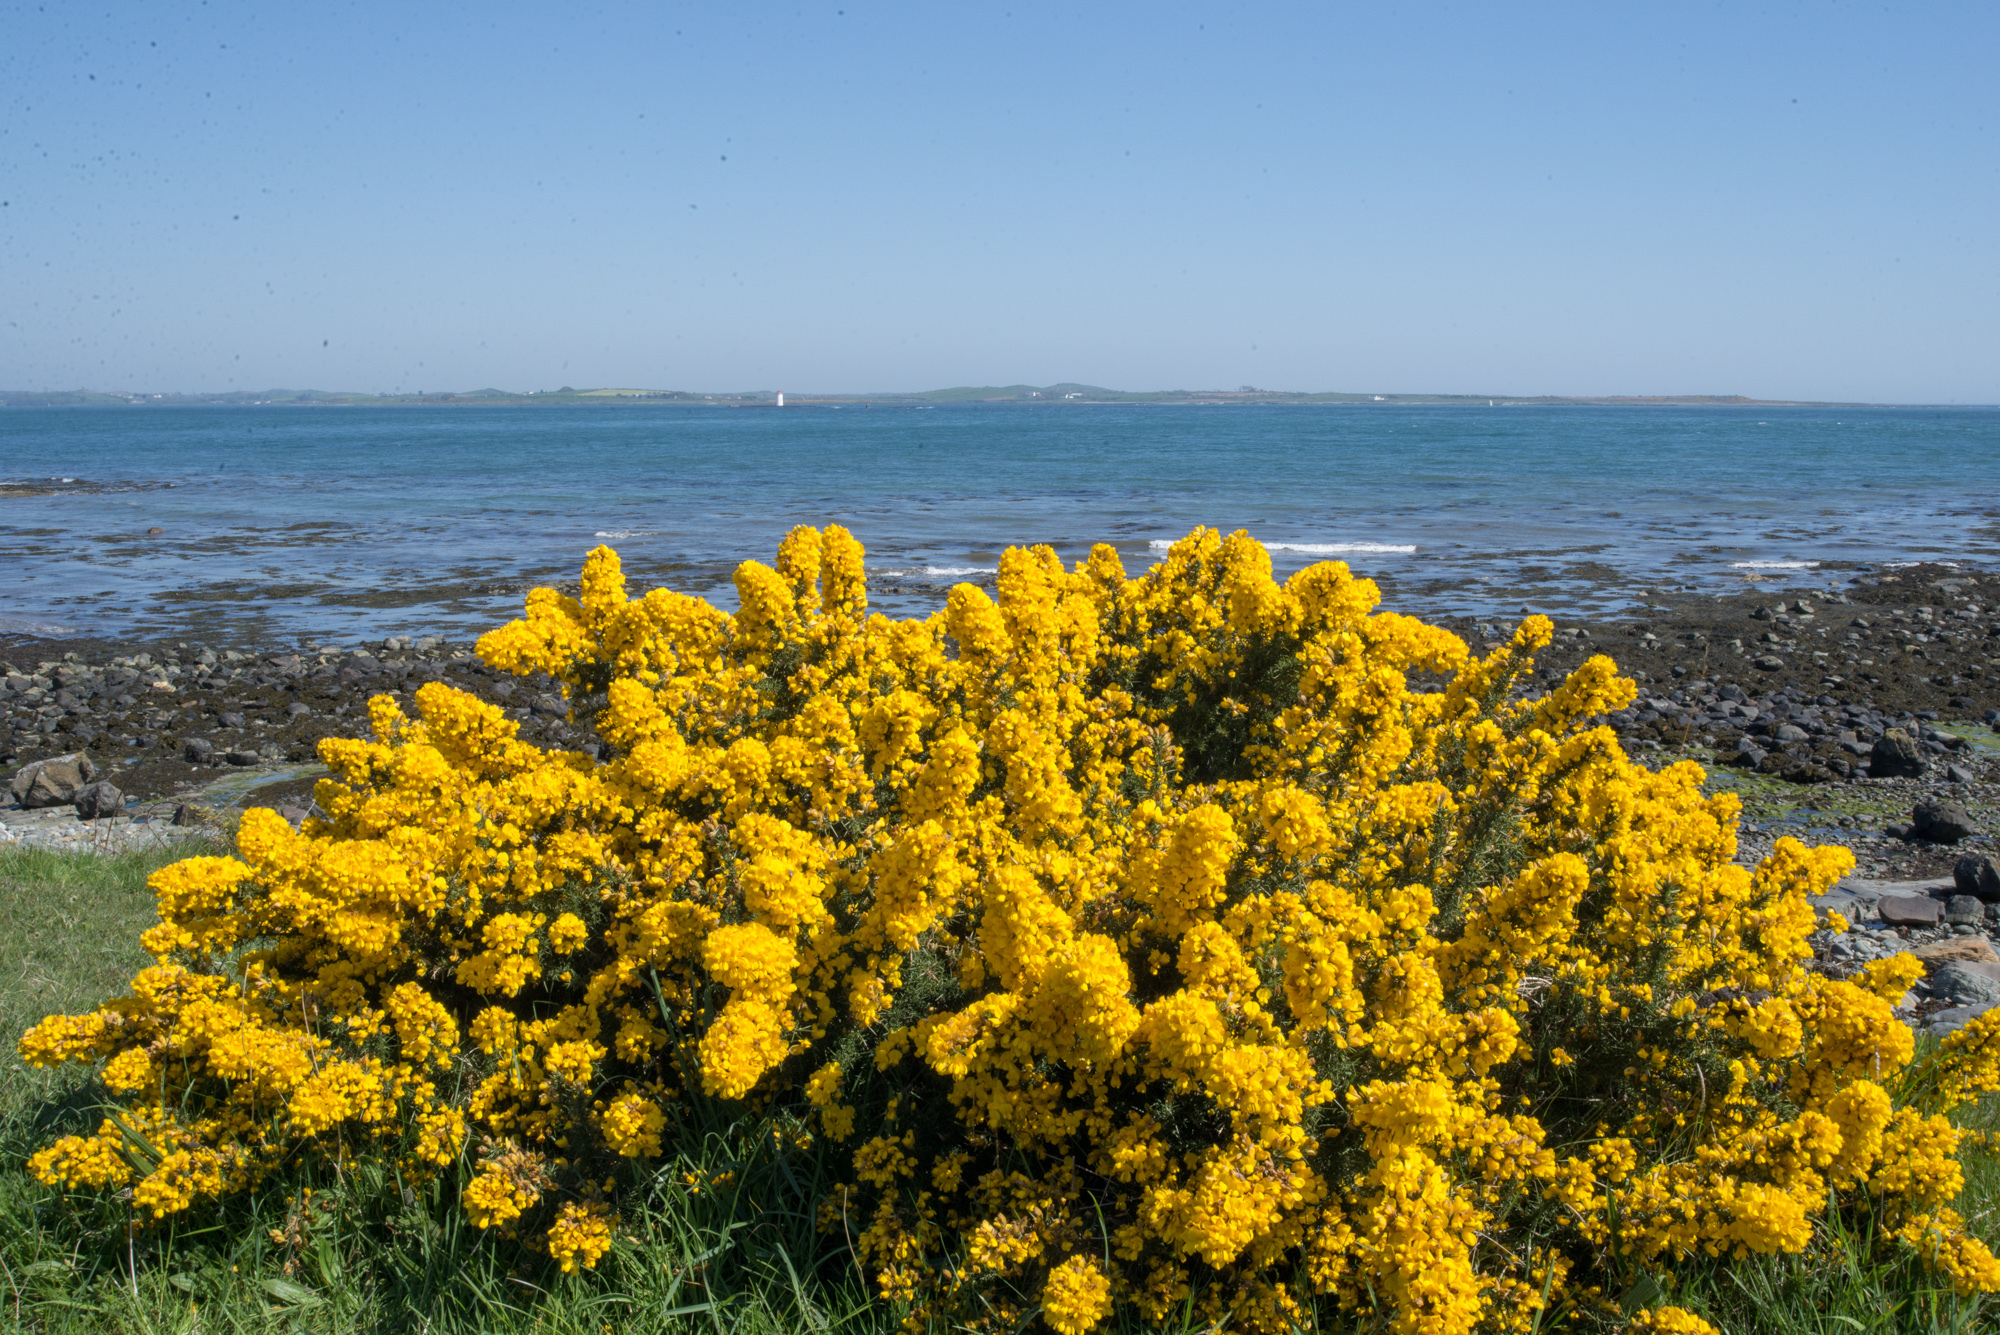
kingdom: Plantae
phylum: Tracheophyta
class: Magnoliopsida
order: Fabales
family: Fabaceae
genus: Ulex
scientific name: Ulex europaeus
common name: Common gorse
